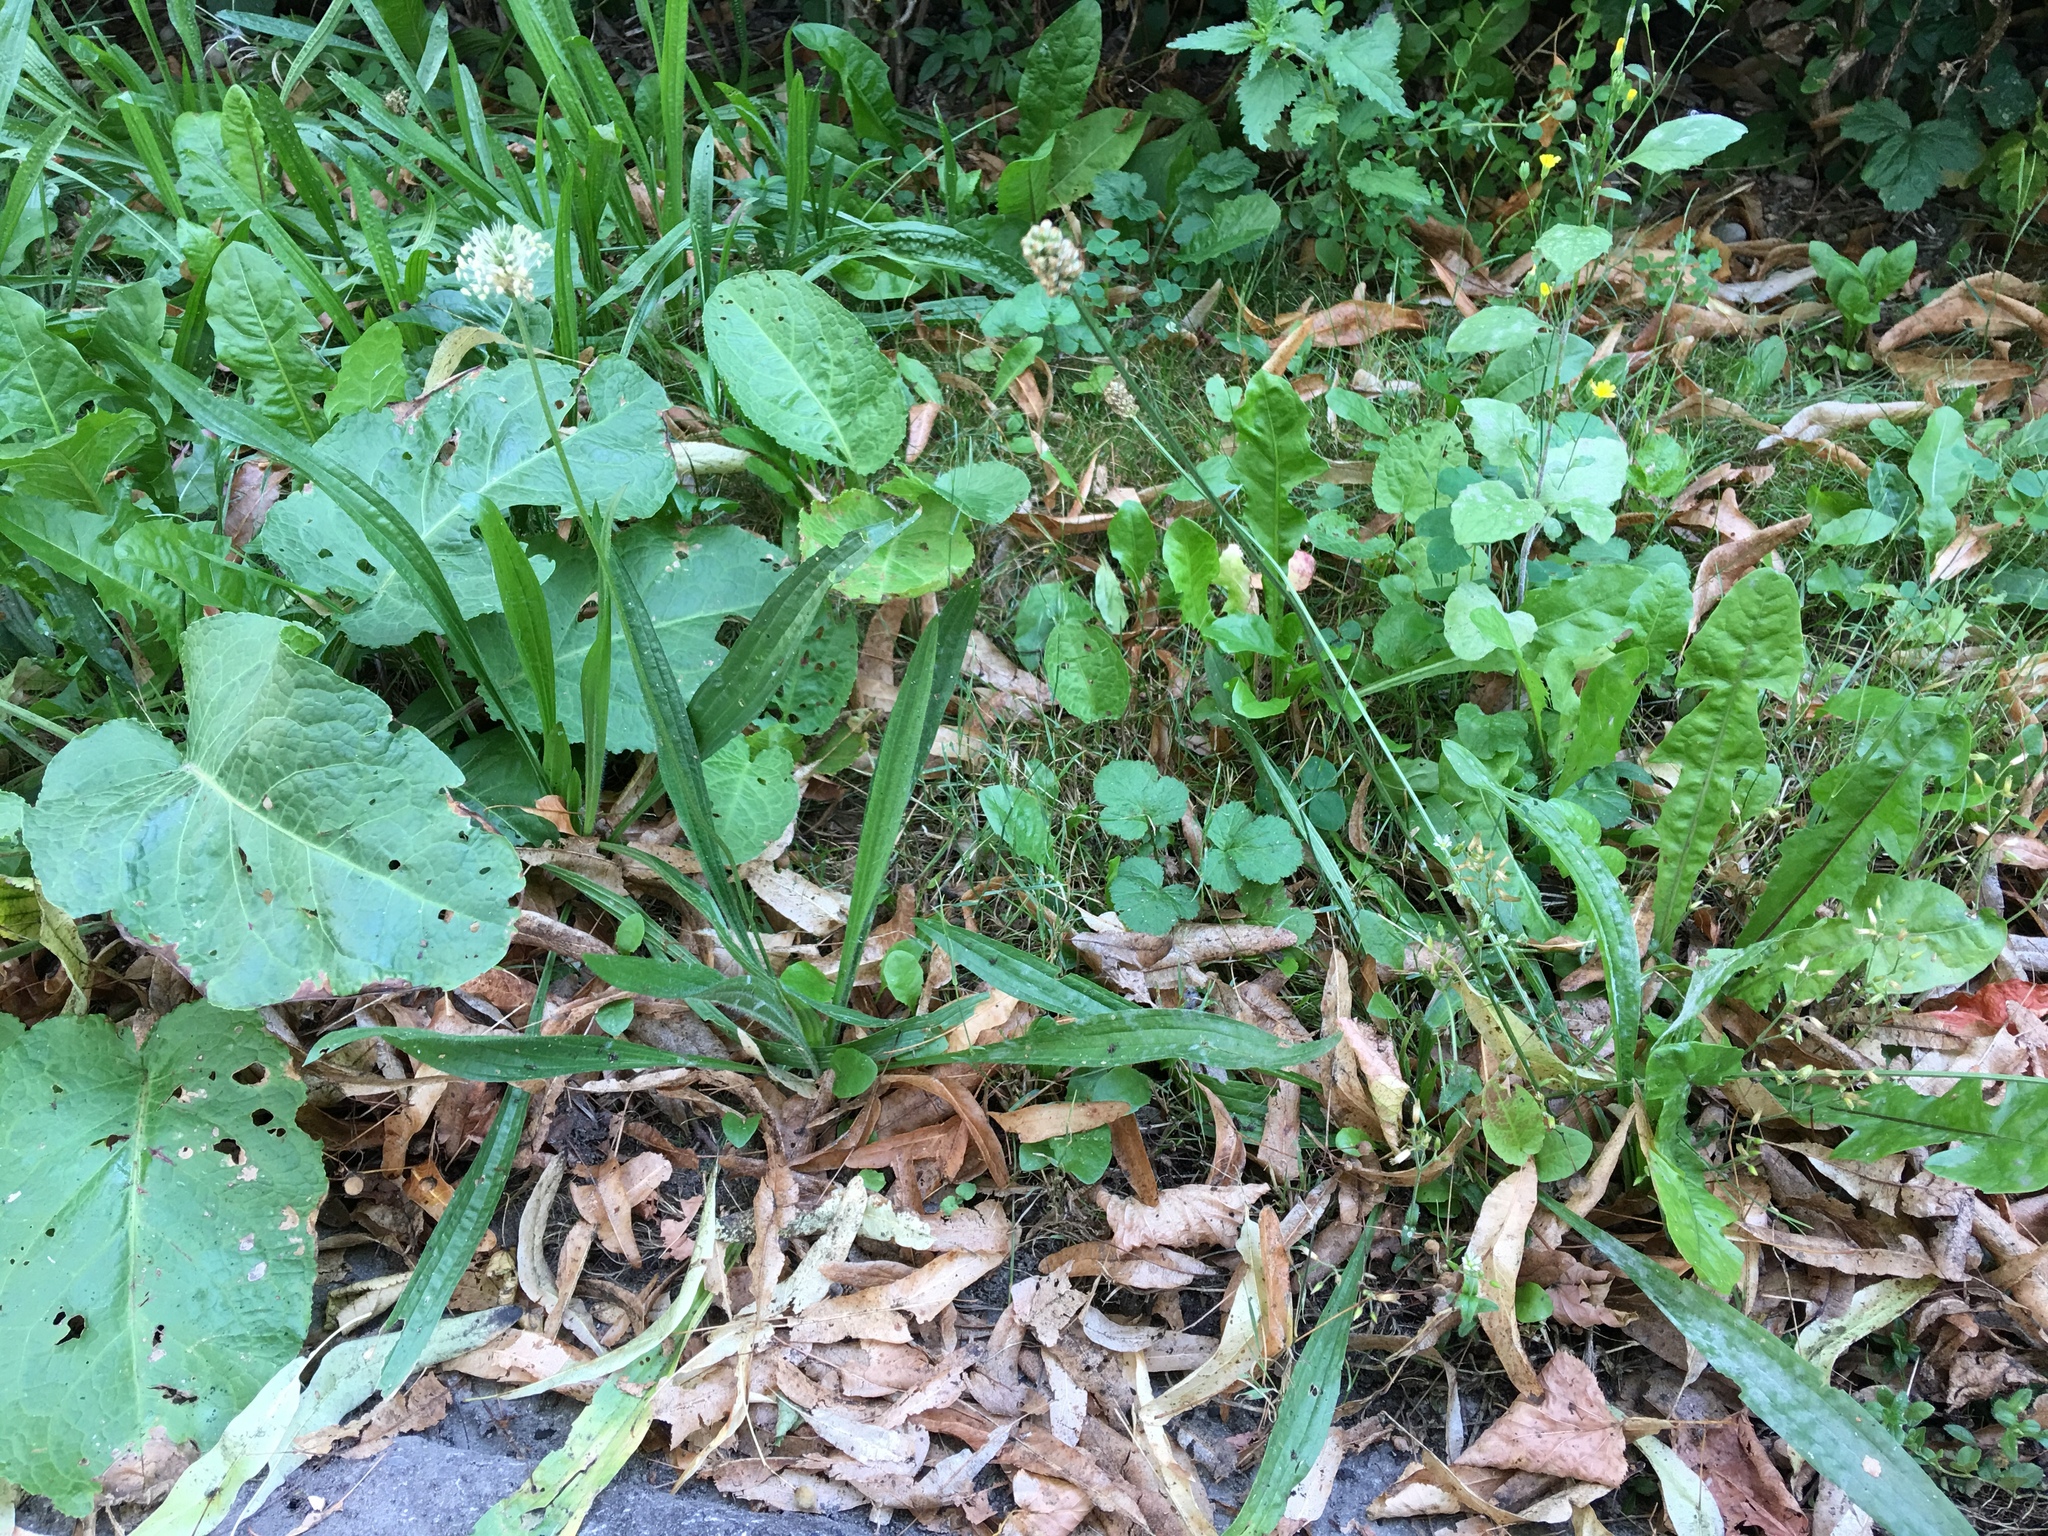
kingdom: Plantae
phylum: Tracheophyta
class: Magnoliopsida
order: Lamiales
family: Plantaginaceae
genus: Plantago
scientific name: Plantago lanceolata
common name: Ribwort plantain
